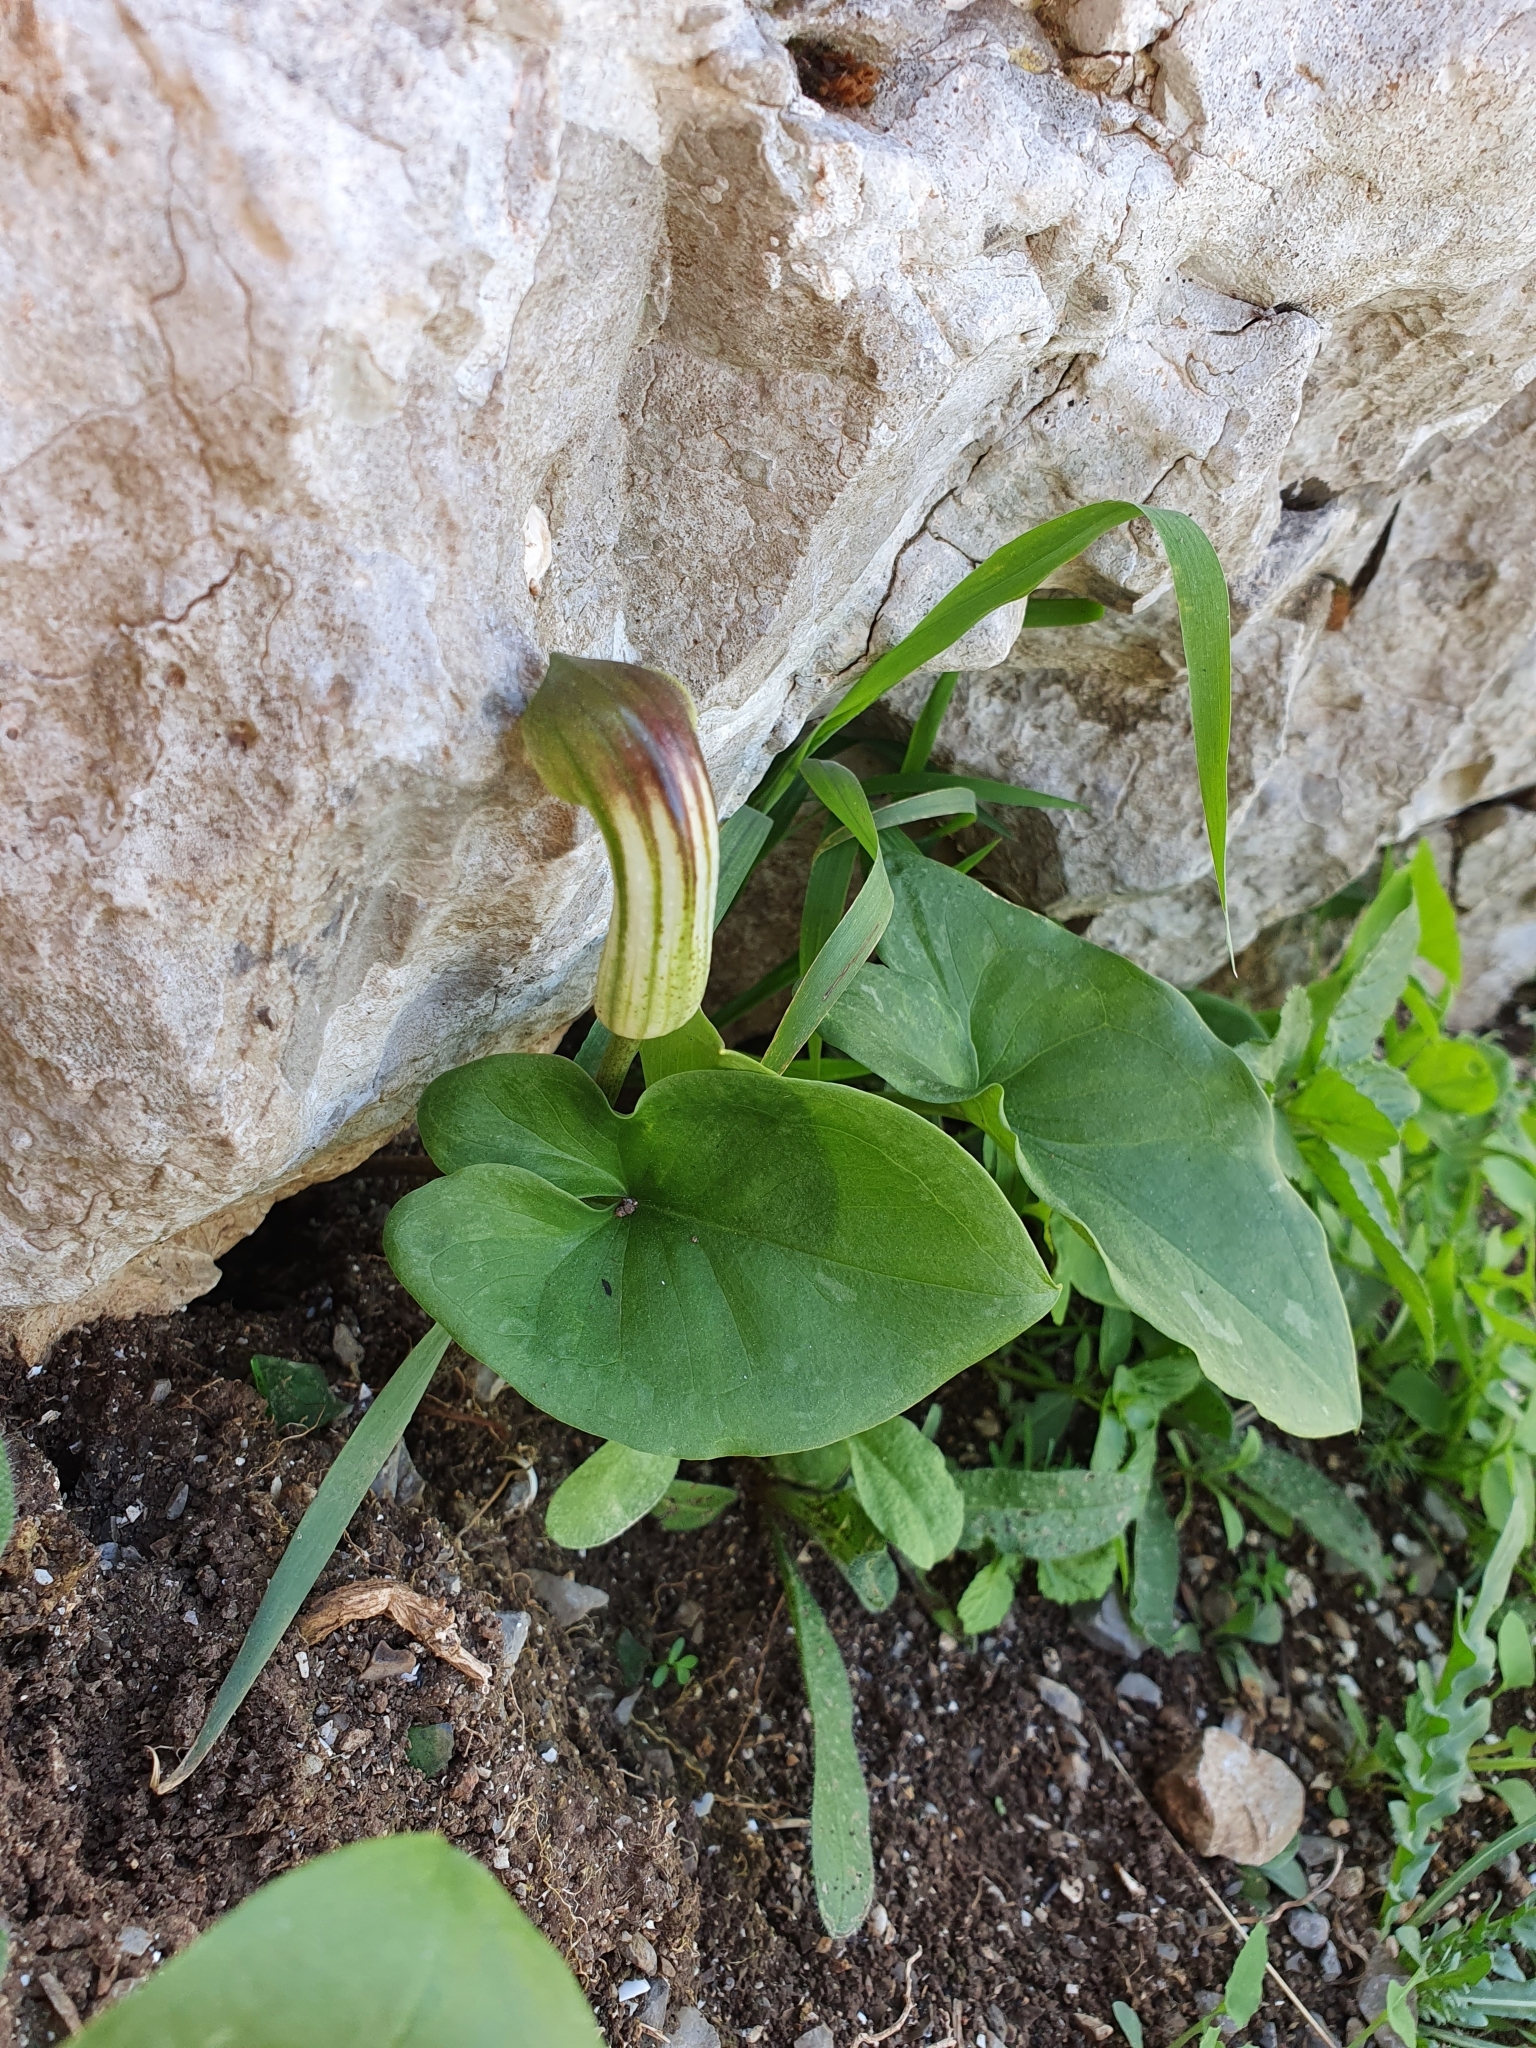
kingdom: Plantae
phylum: Tracheophyta
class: Liliopsida
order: Alismatales
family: Araceae
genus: Arisarum
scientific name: Arisarum vulgare
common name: Common arisarum
